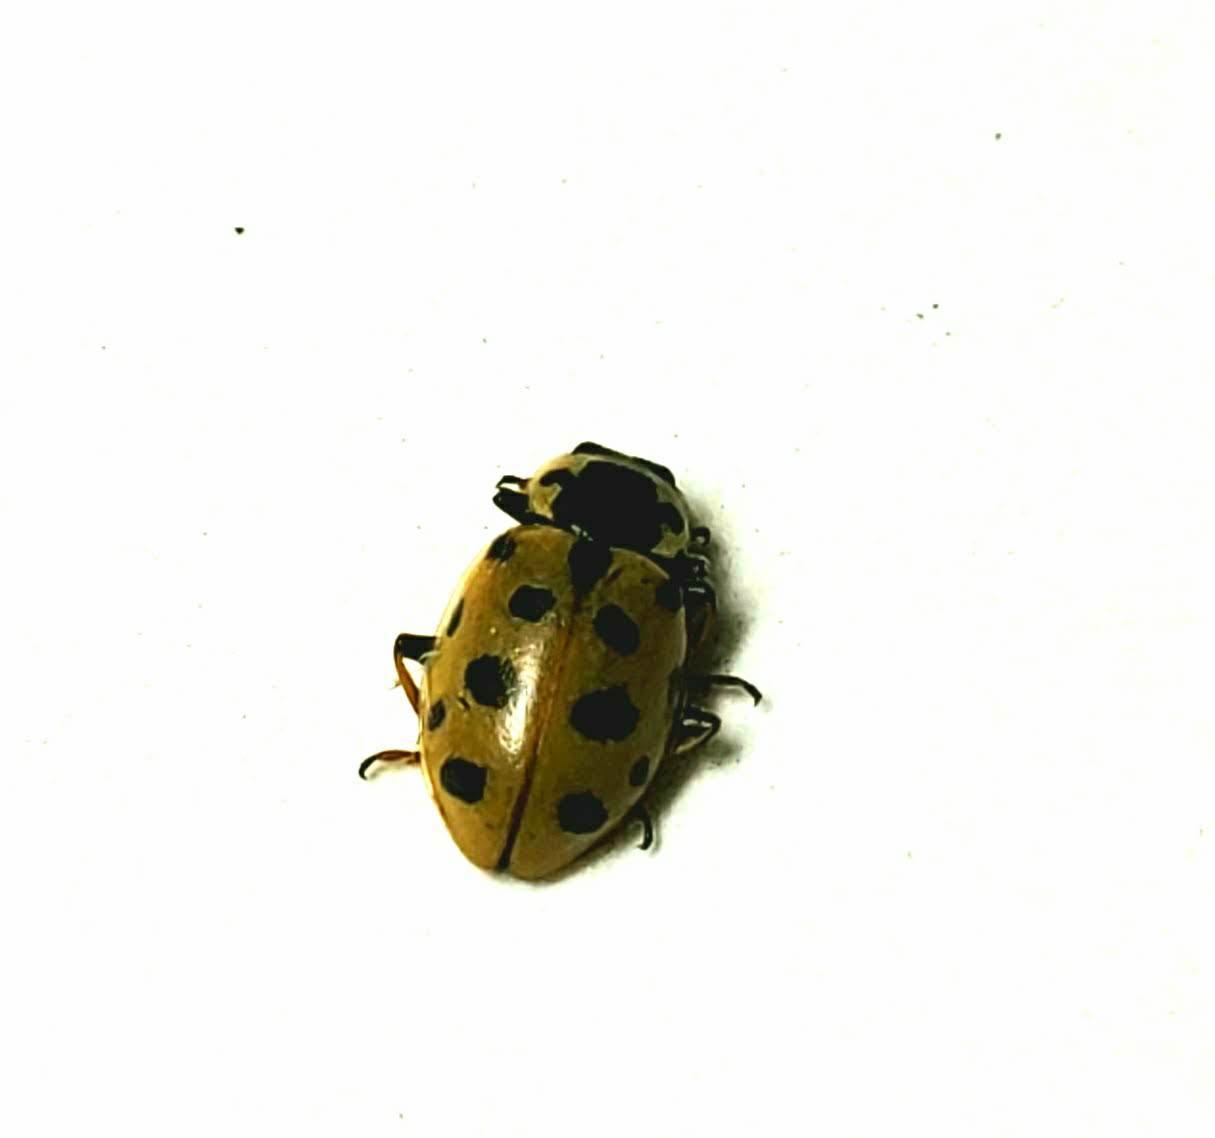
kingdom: Animalia
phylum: Arthropoda
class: Insecta
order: Coleoptera
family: Coccinellidae
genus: Hippodamia
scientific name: Hippodamia tredecimpunctata
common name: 13-spot ladybird
